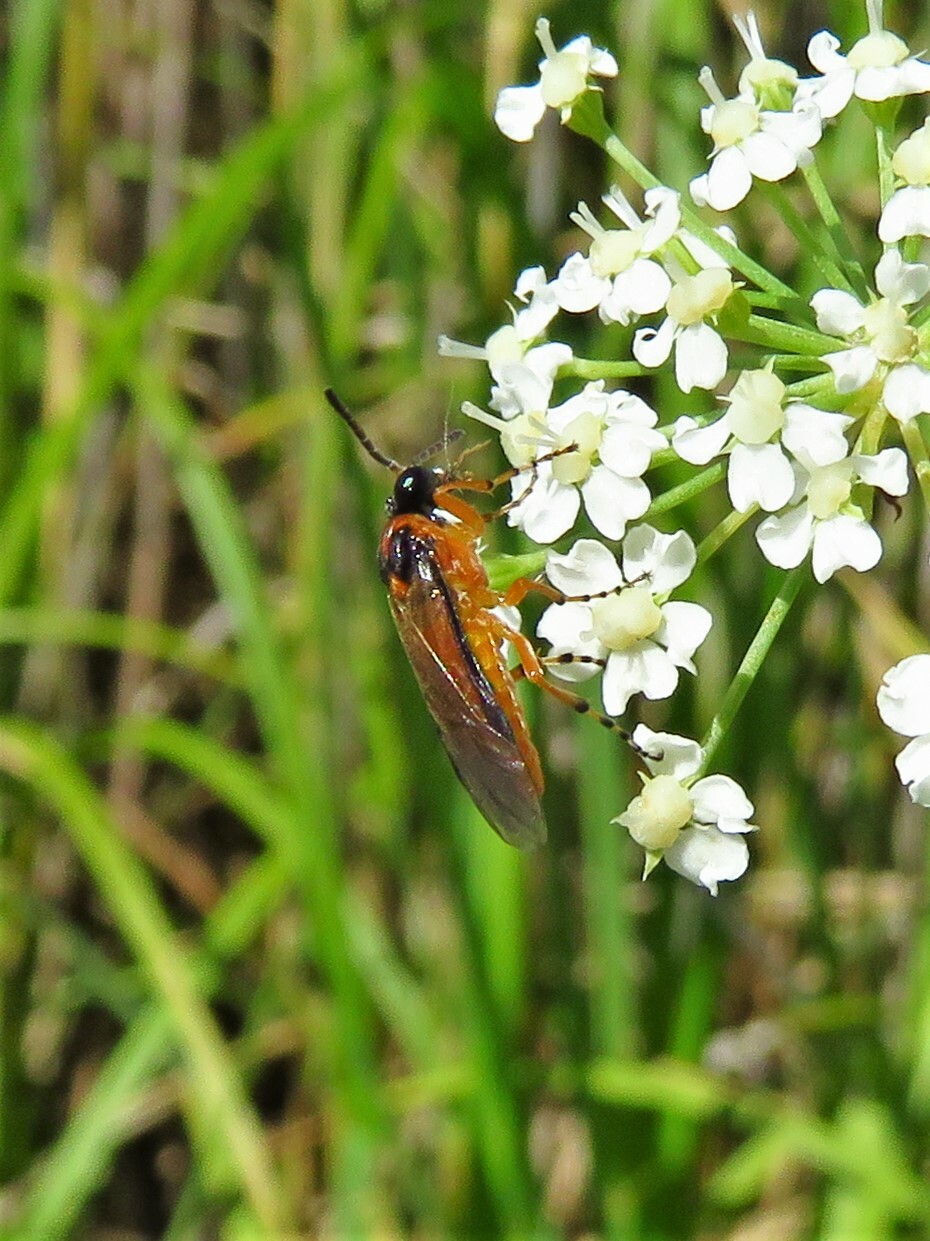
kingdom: Animalia
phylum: Arthropoda
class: Insecta
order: Hymenoptera
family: Tenthredinidae
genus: Athalia
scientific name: Athalia rosae
